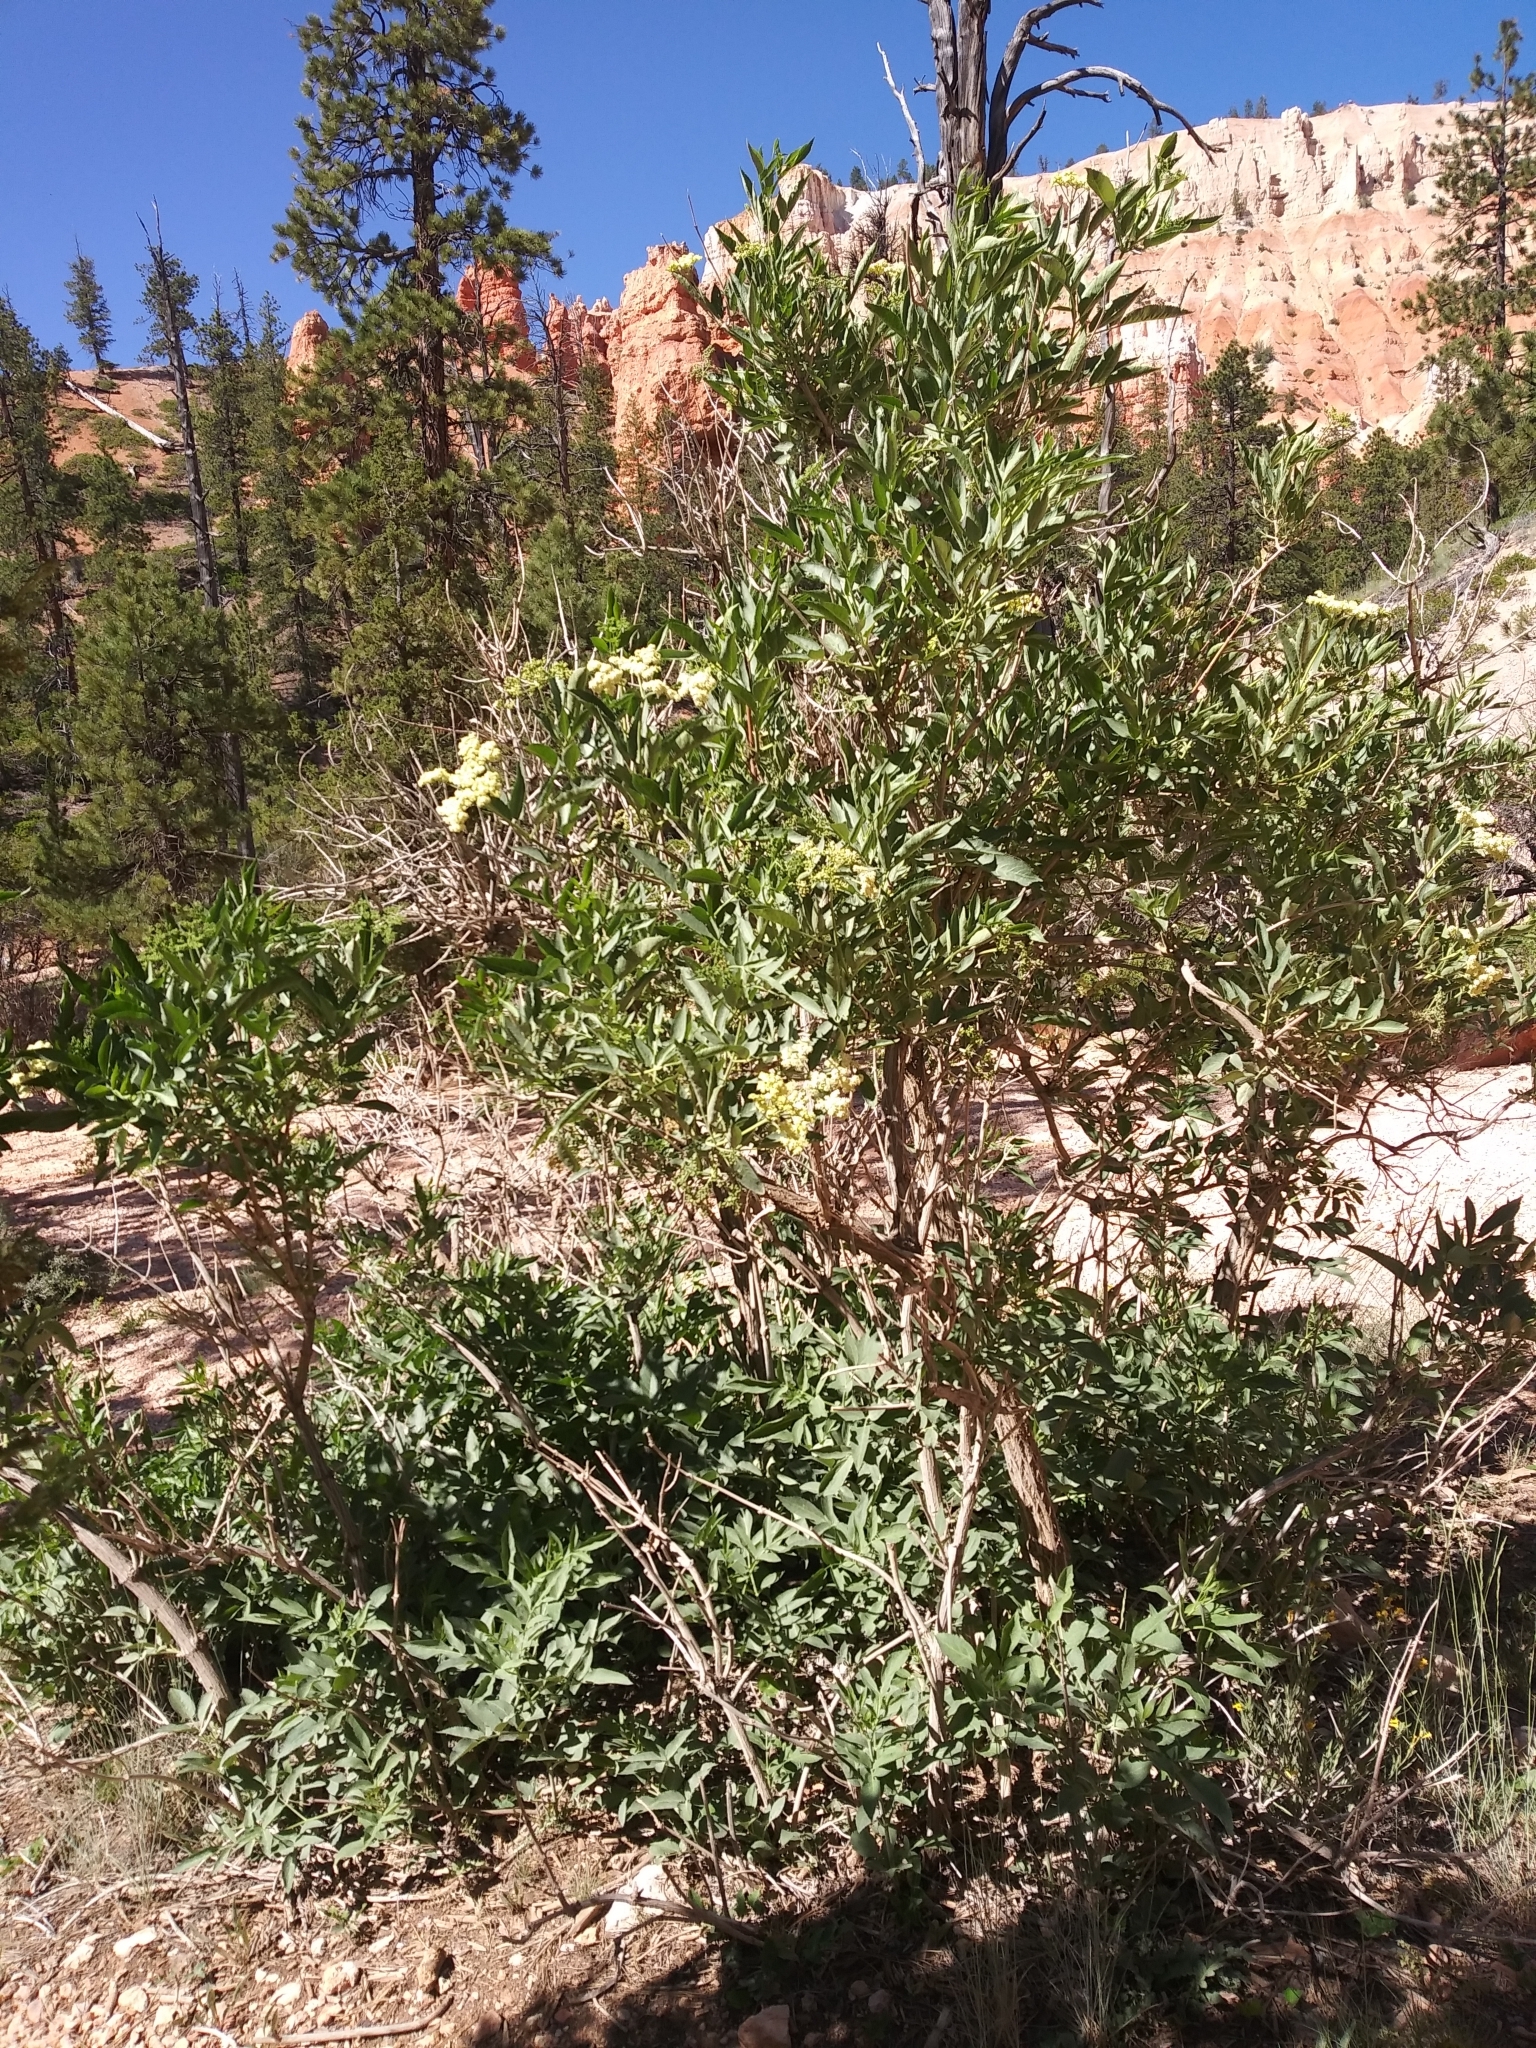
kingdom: Plantae
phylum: Tracheophyta
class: Magnoliopsida
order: Dipsacales
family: Viburnaceae
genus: Sambucus
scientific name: Sambucus cerulea
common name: Blue elder
